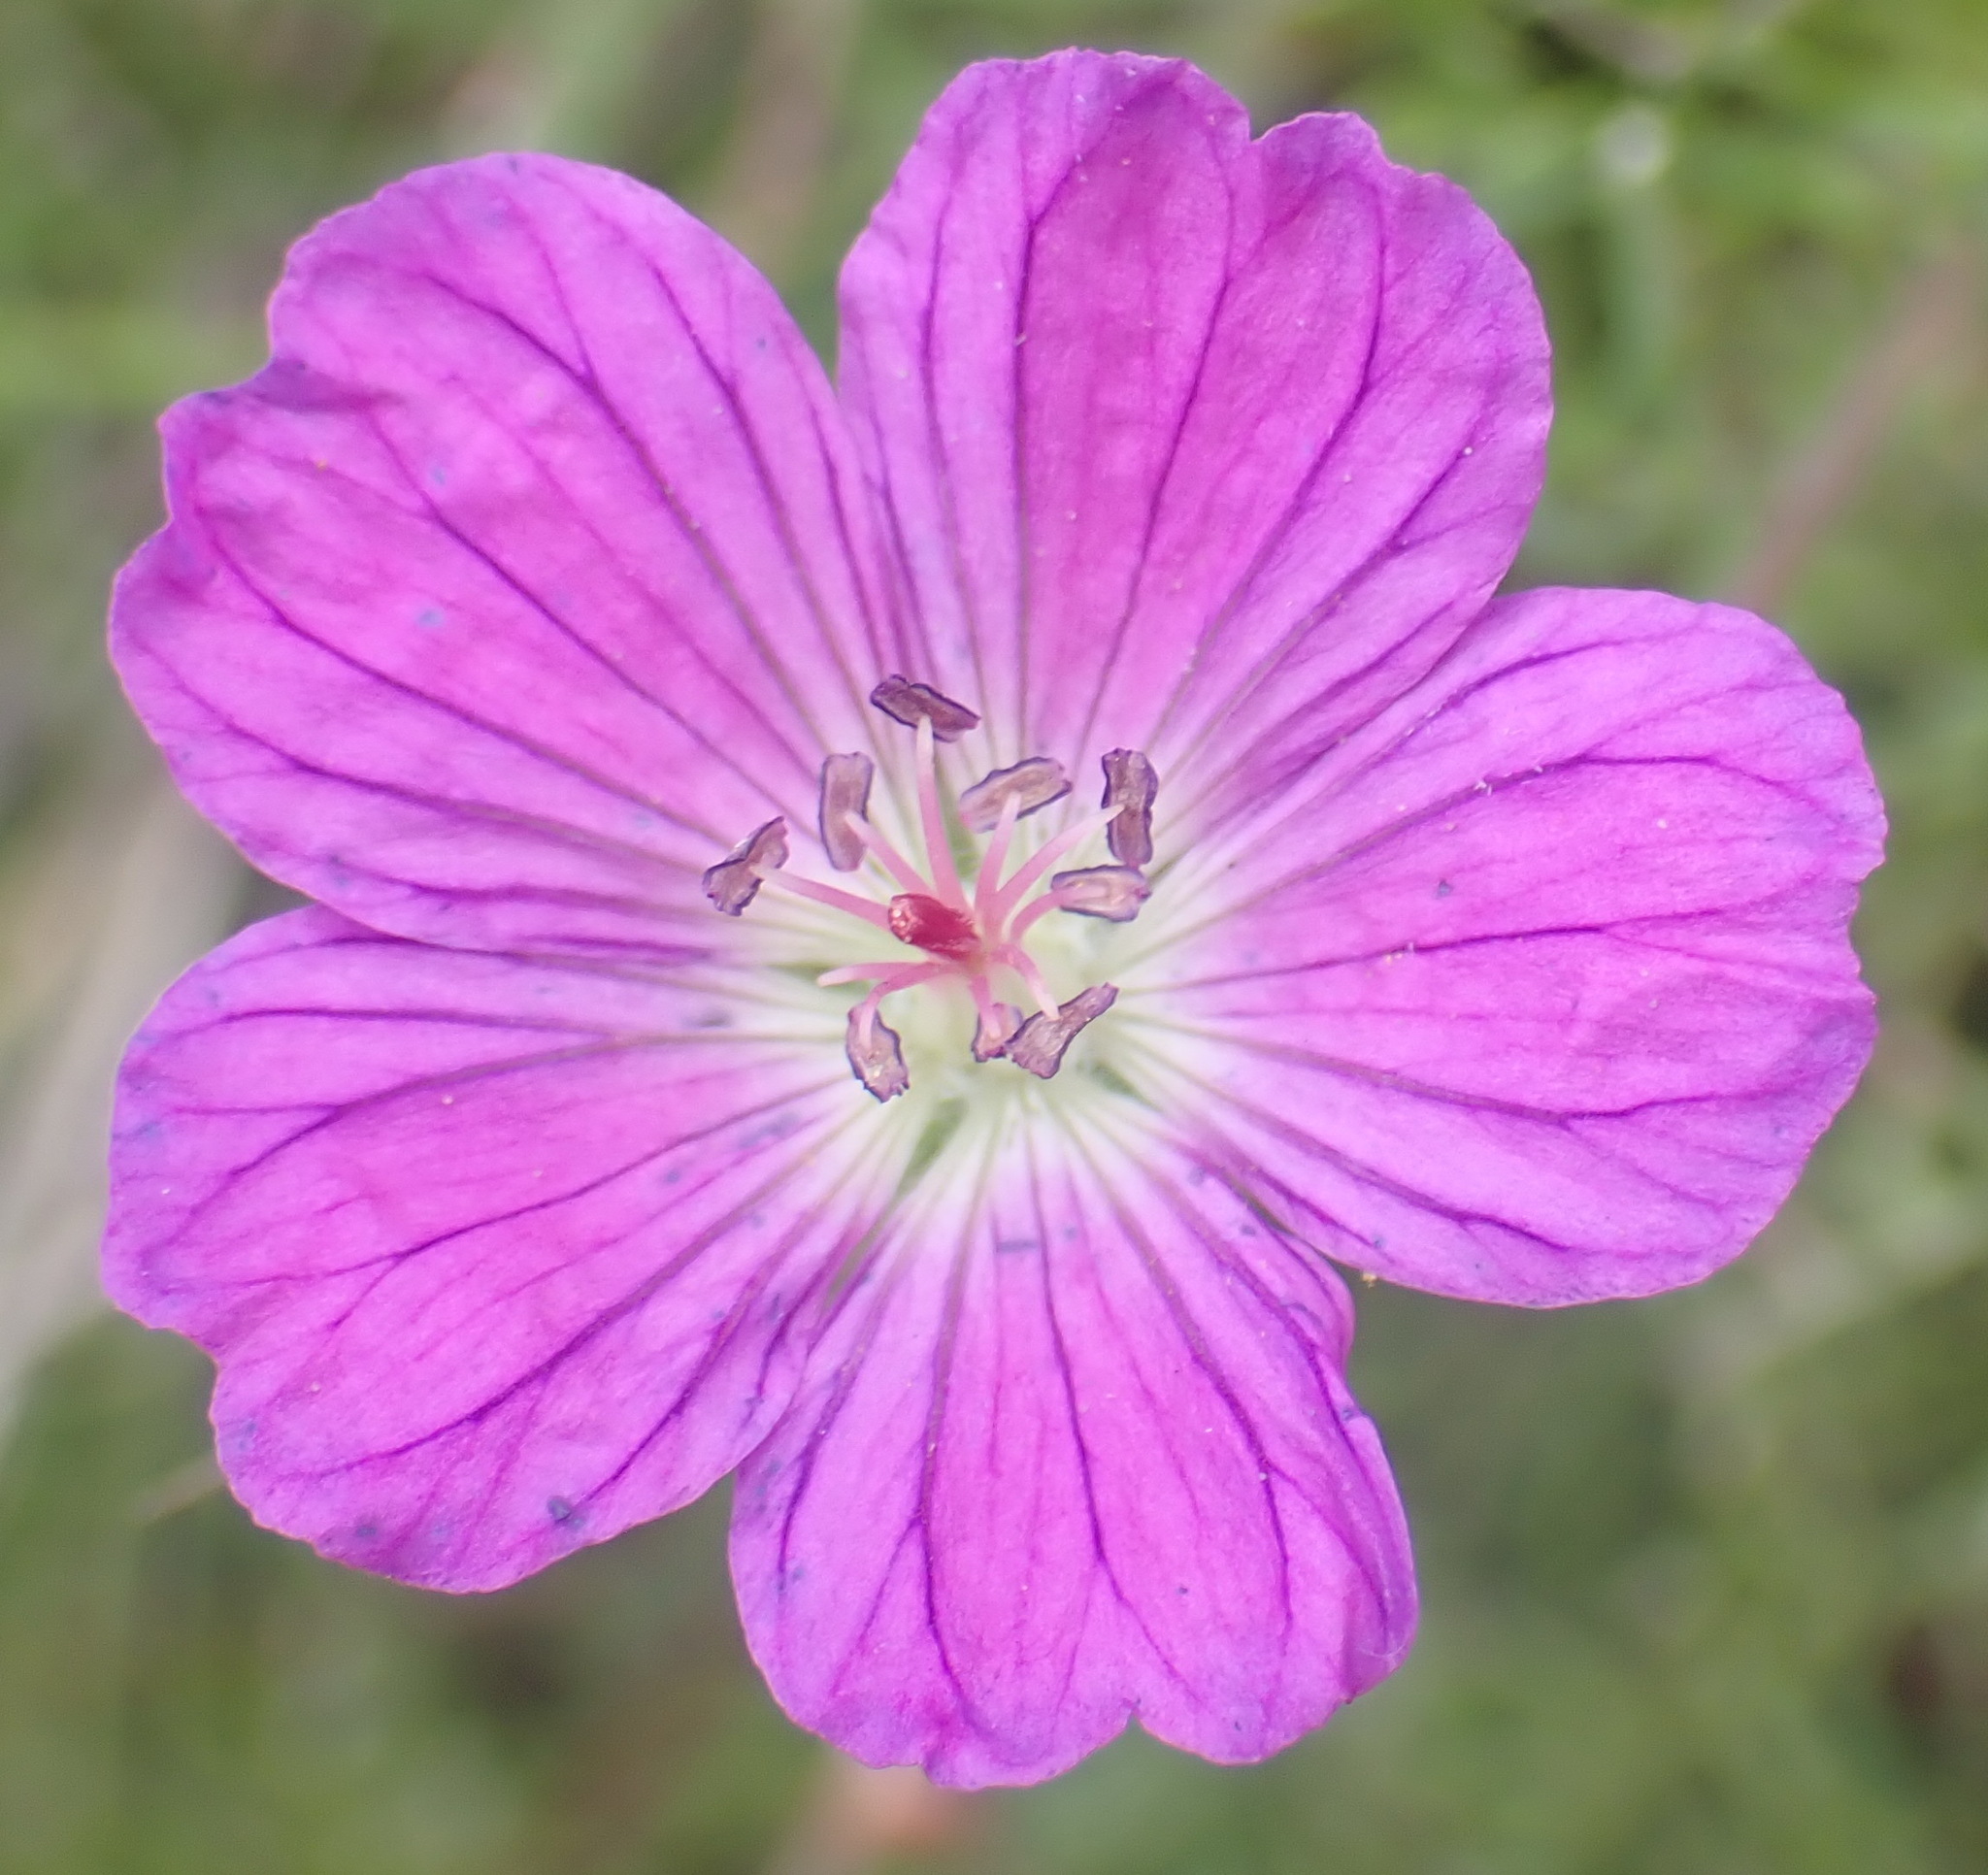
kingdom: Plantae
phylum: Tracheophyta
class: Magnoliopsida
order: Geraniales
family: Geraniaceae
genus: Geranium
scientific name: Geranium incanum
